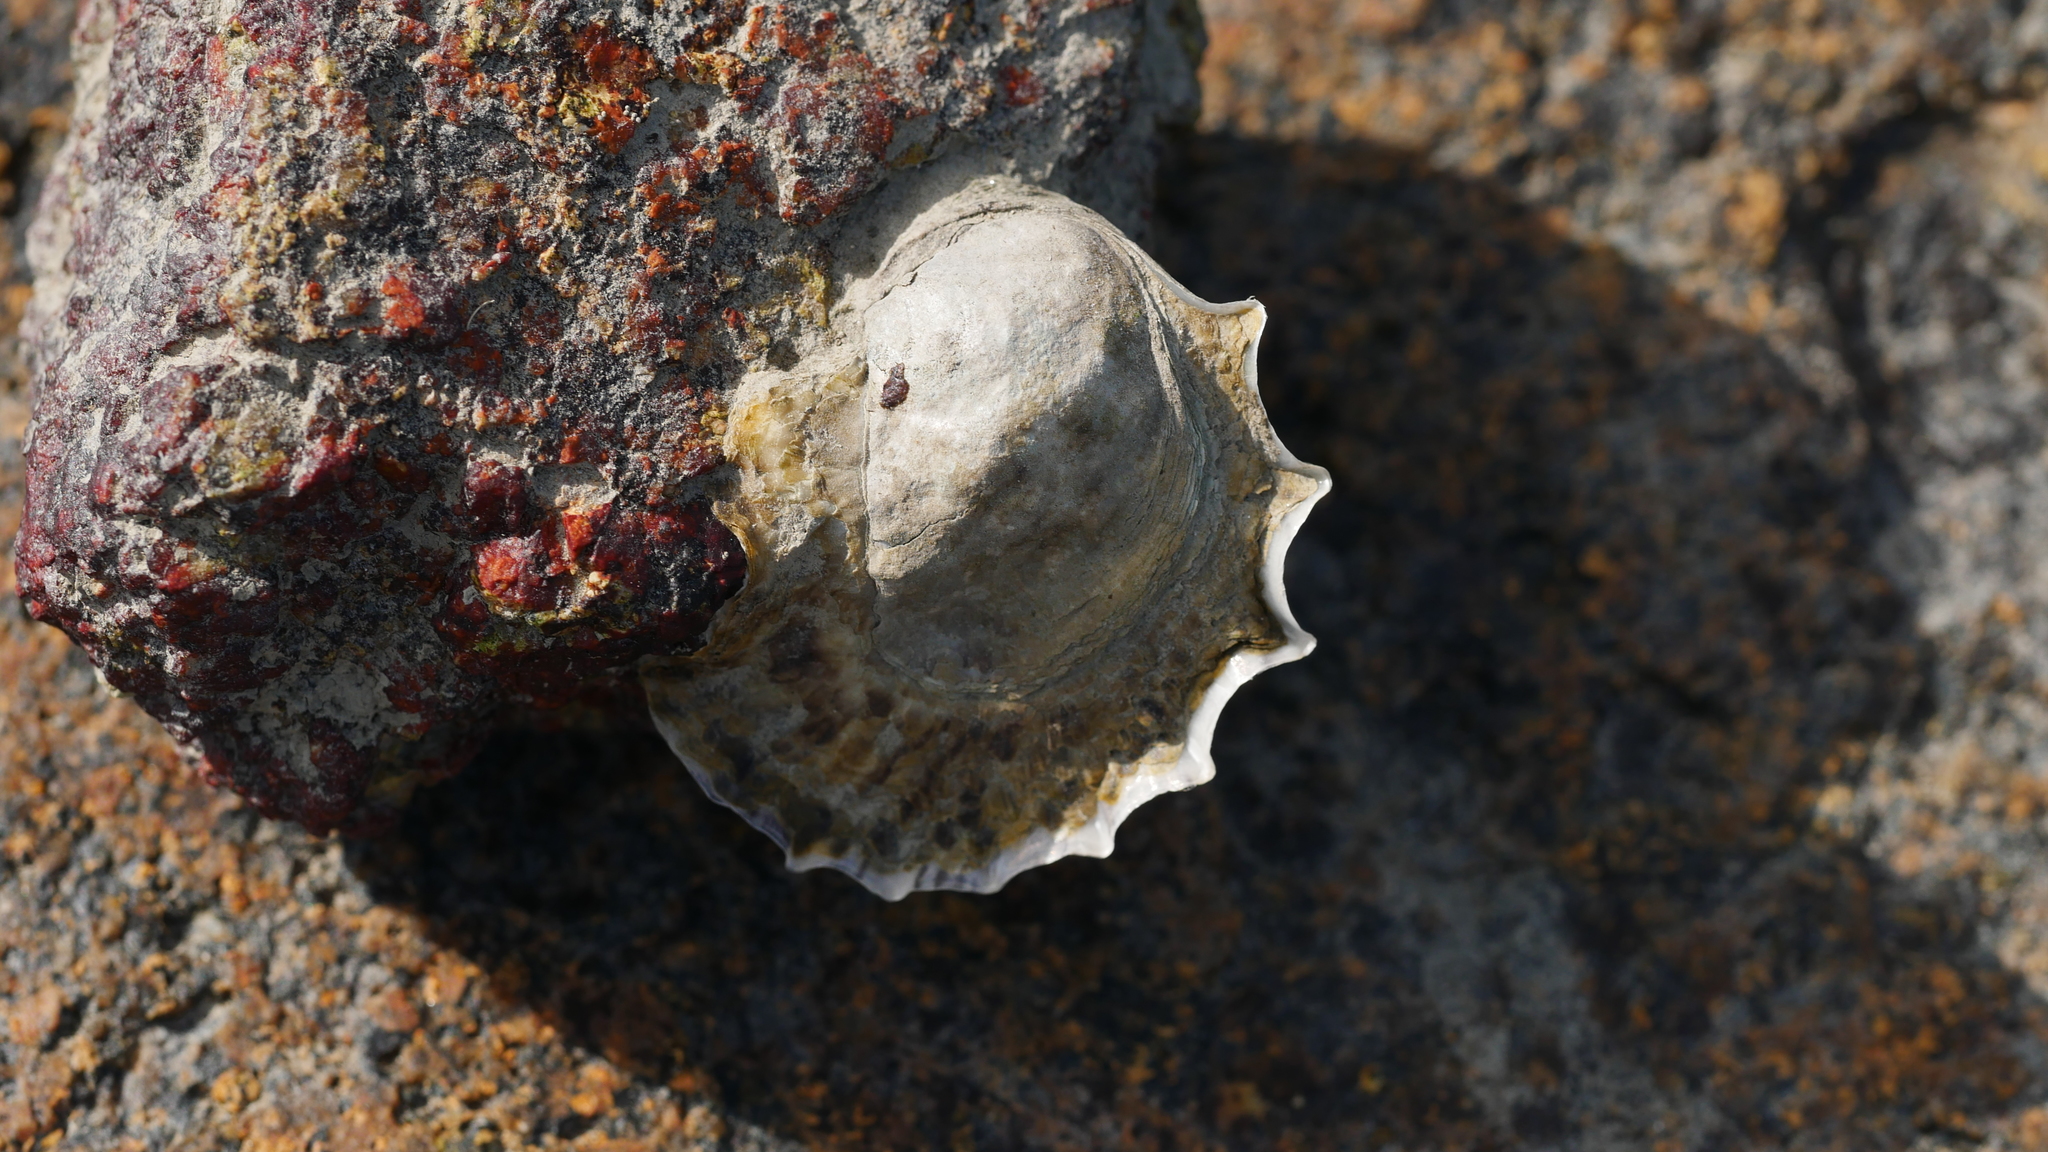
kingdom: Animalia
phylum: Mollusca
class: Bivalvia
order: Ostreida
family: Ostreidae
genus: Crassostrea
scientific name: Crassostrea virginica
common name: American oyster
